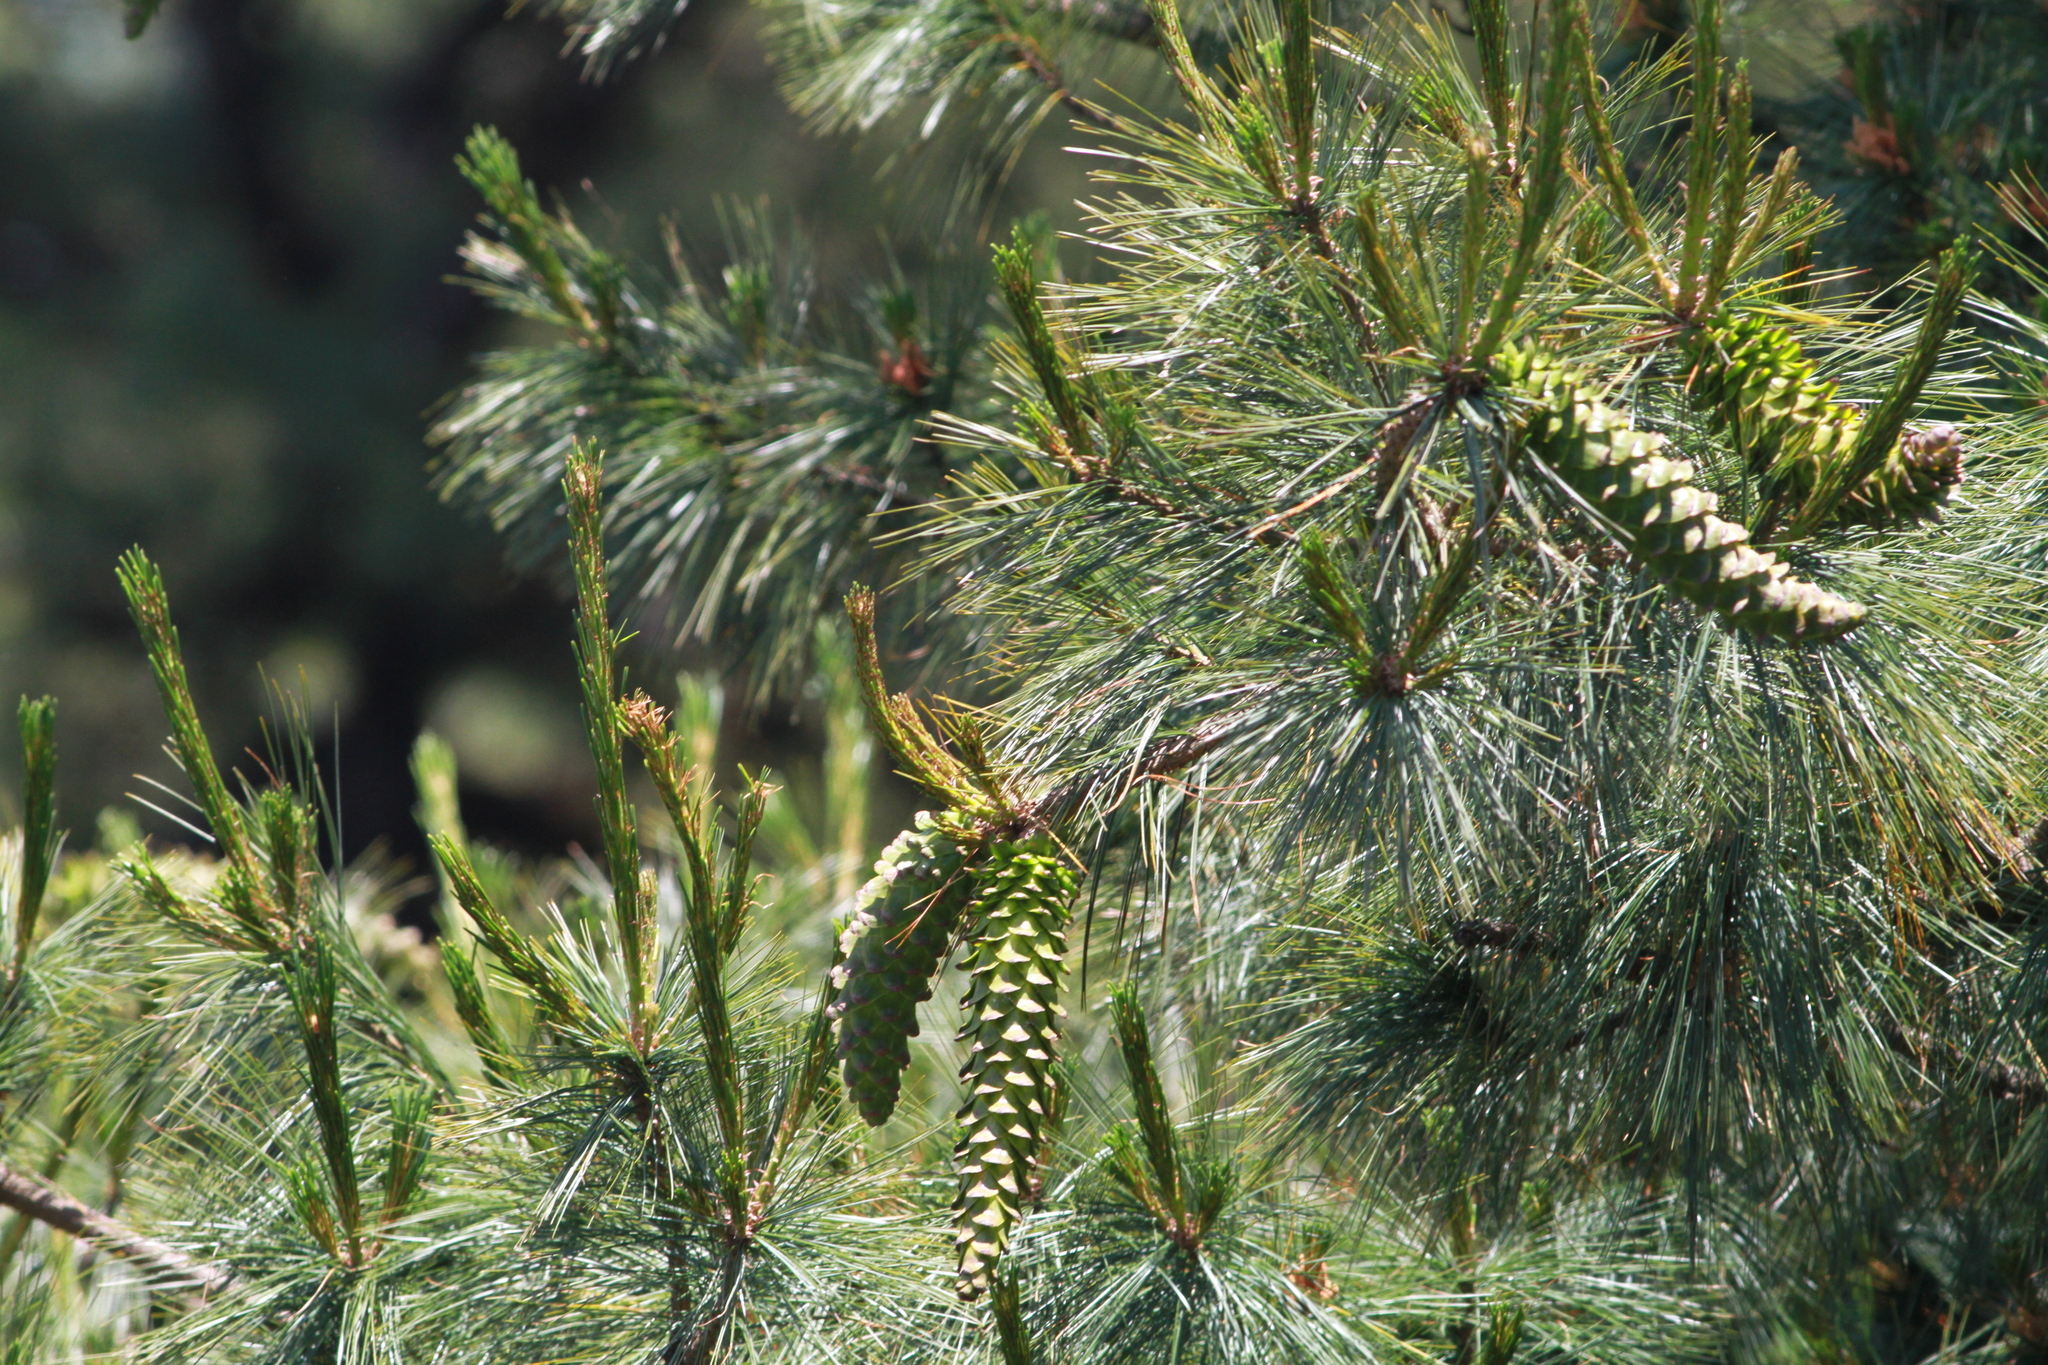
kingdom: Plantae
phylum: Tracheophyta
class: Pinopsida
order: Pinales
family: Pinaceae
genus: Pinus
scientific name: Pinus ayacahuite
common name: Mexican white pine
